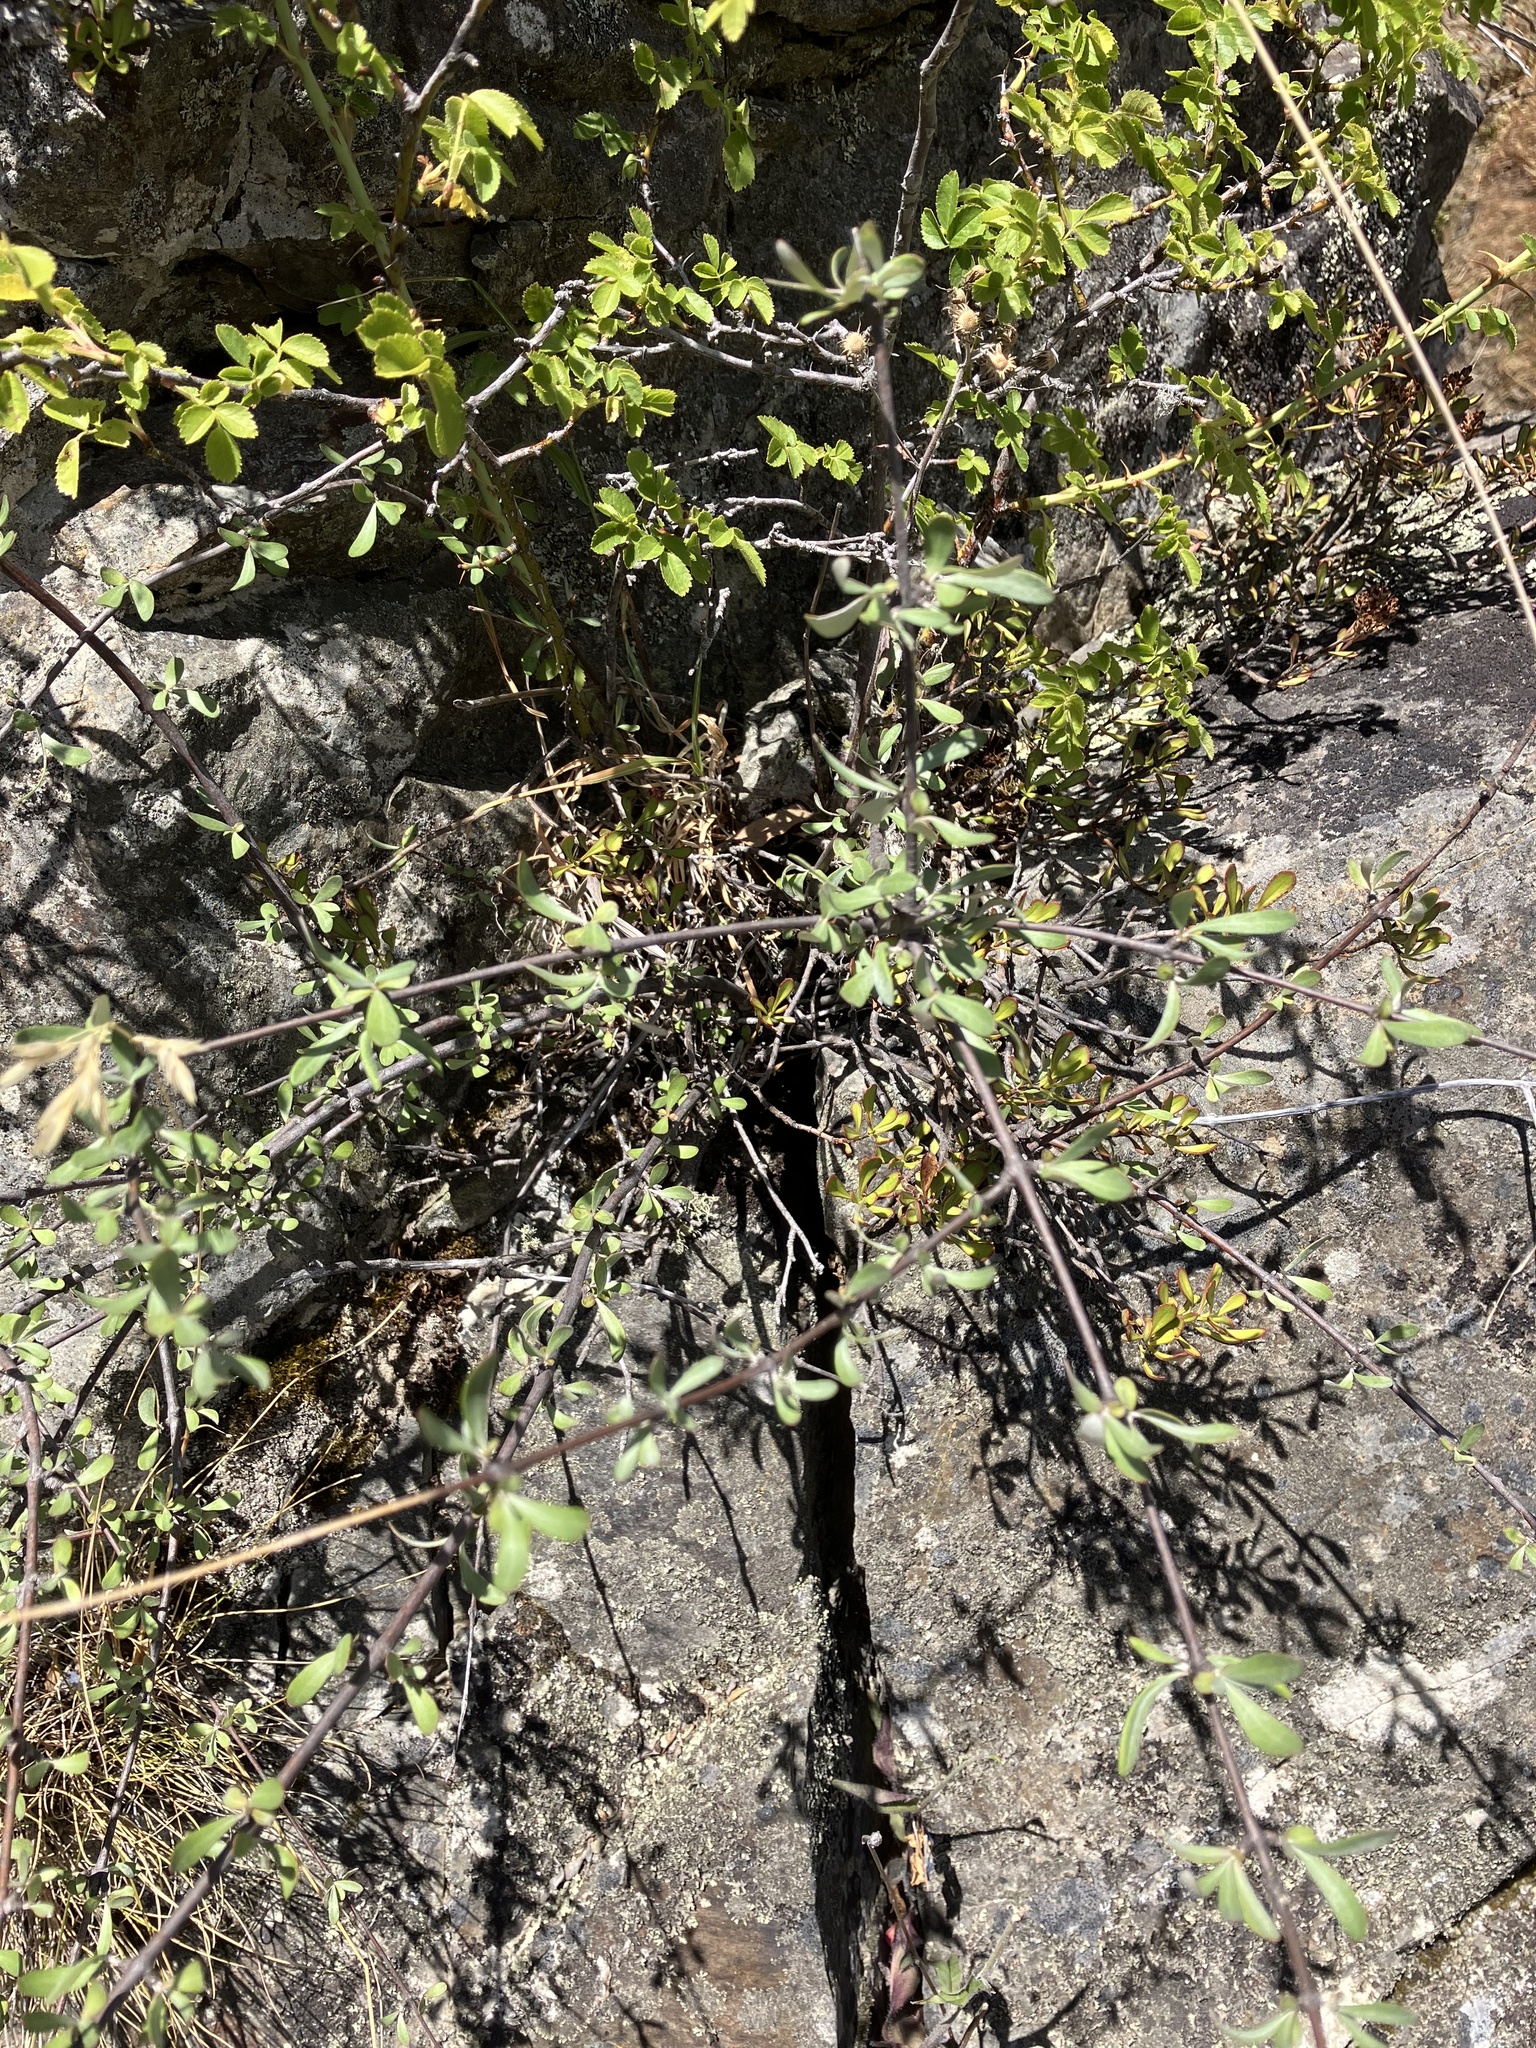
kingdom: Plantae
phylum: Tracheophyta
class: Magnoliopsida
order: Asterales
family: Asteraceae
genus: Olearia
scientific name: Olearia odorata
